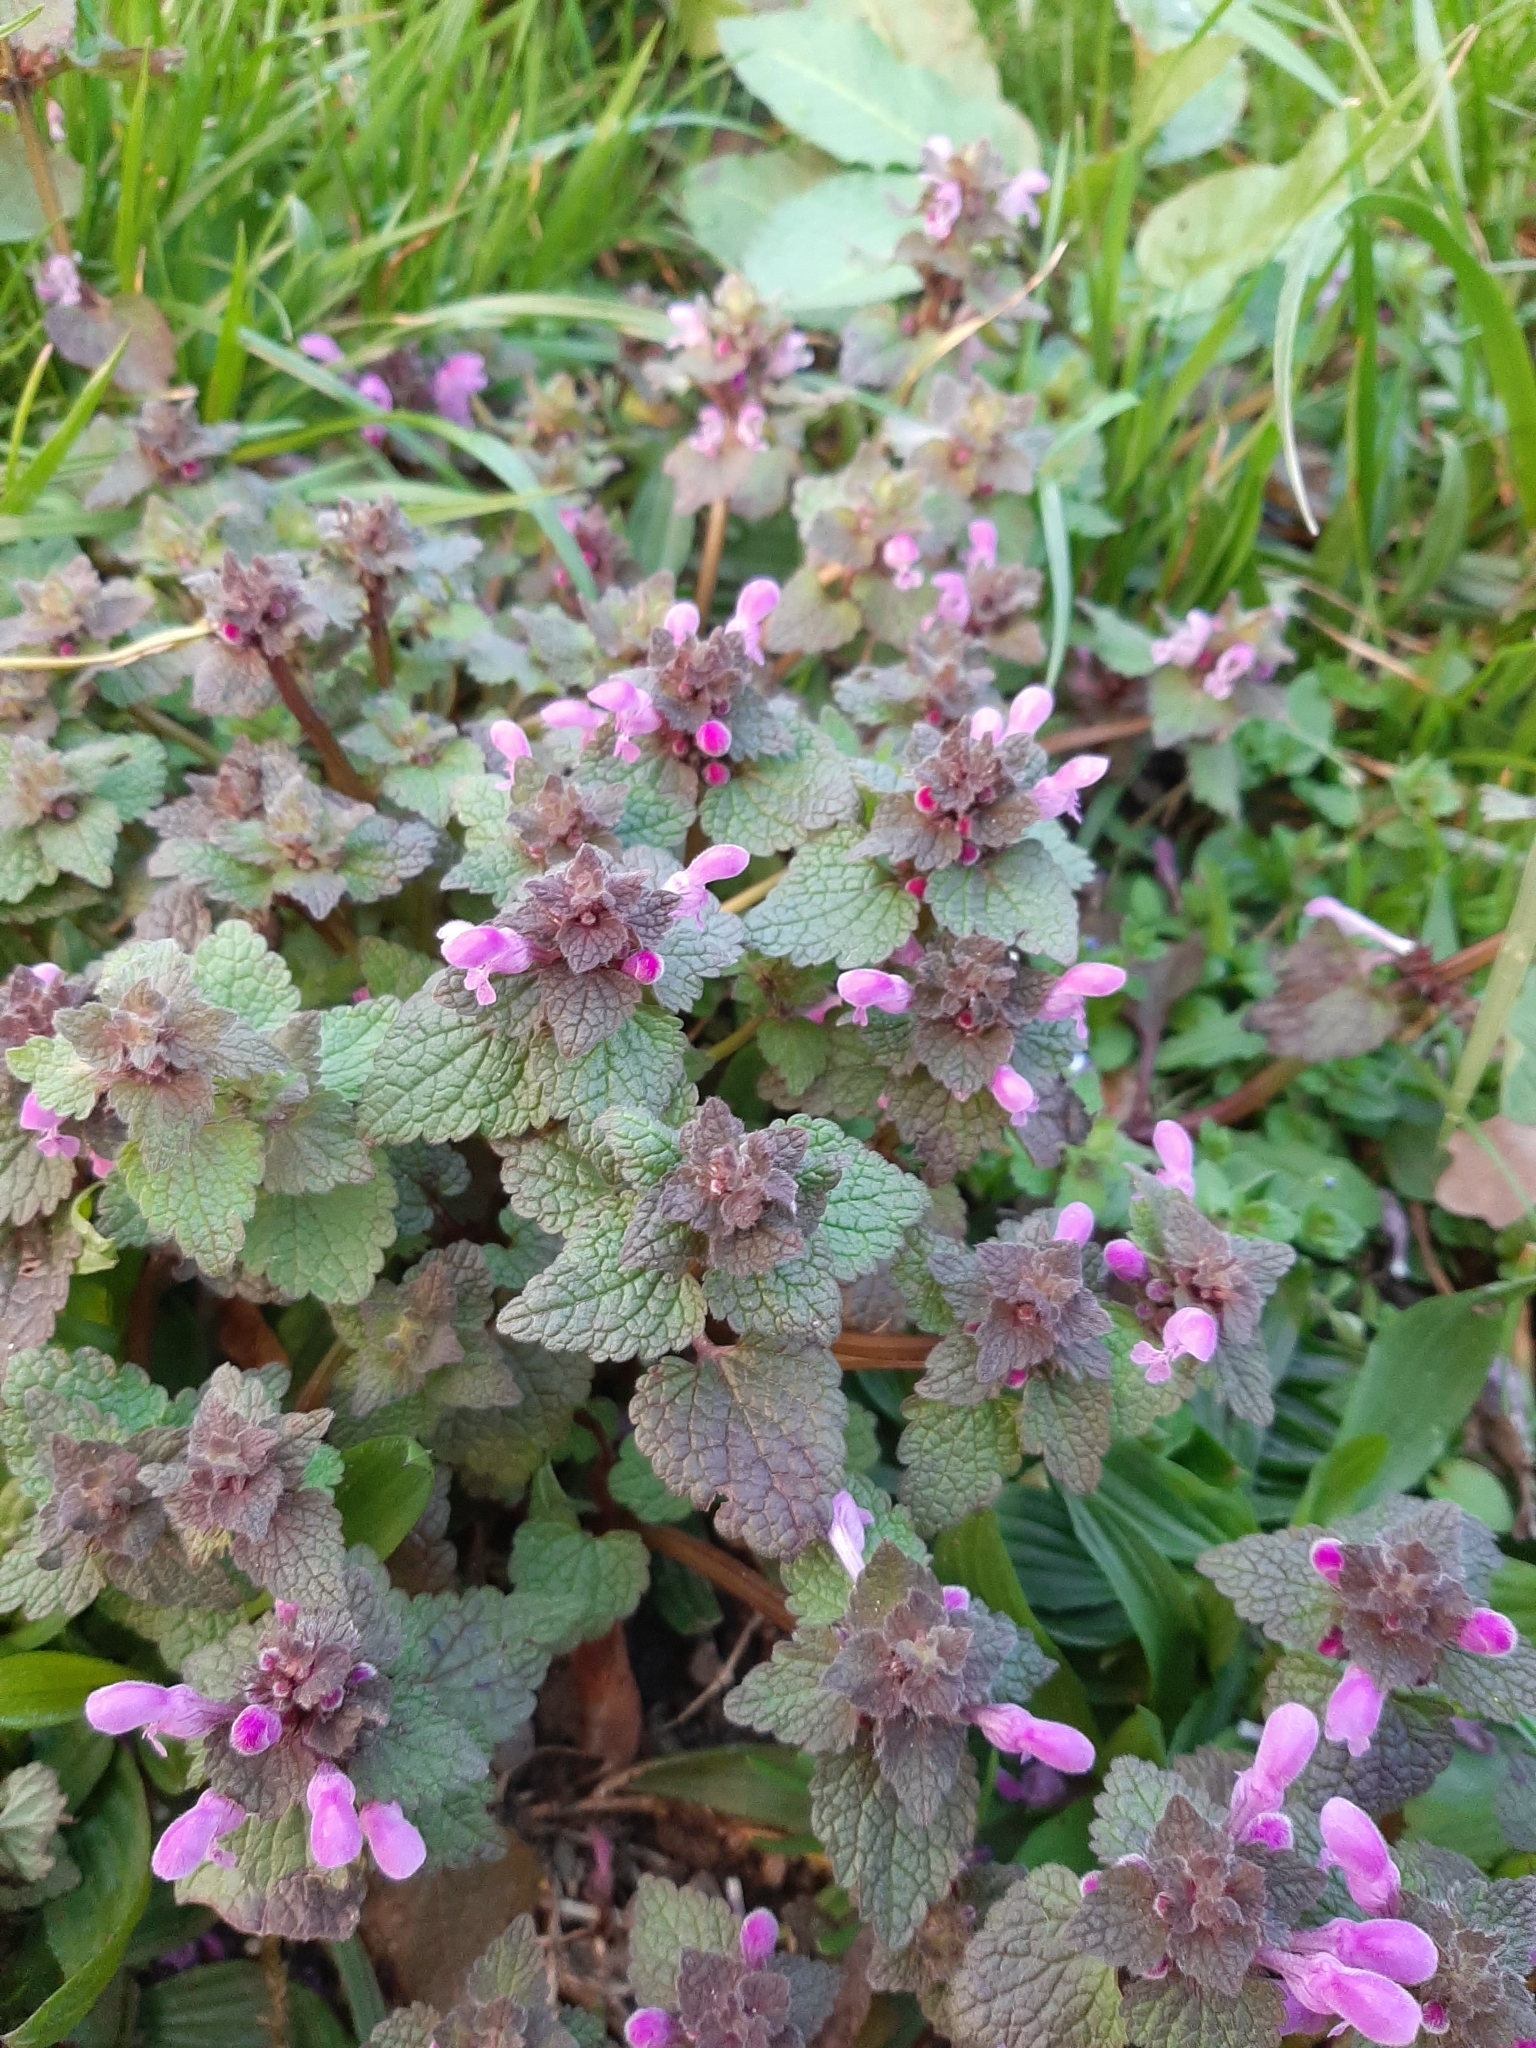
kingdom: Plantae
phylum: Tracheophyta
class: Magnoliopsida
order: Lamiales
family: Lamiaceae
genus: Lamium
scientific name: Lamium purpureum
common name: Red dead-nettle
